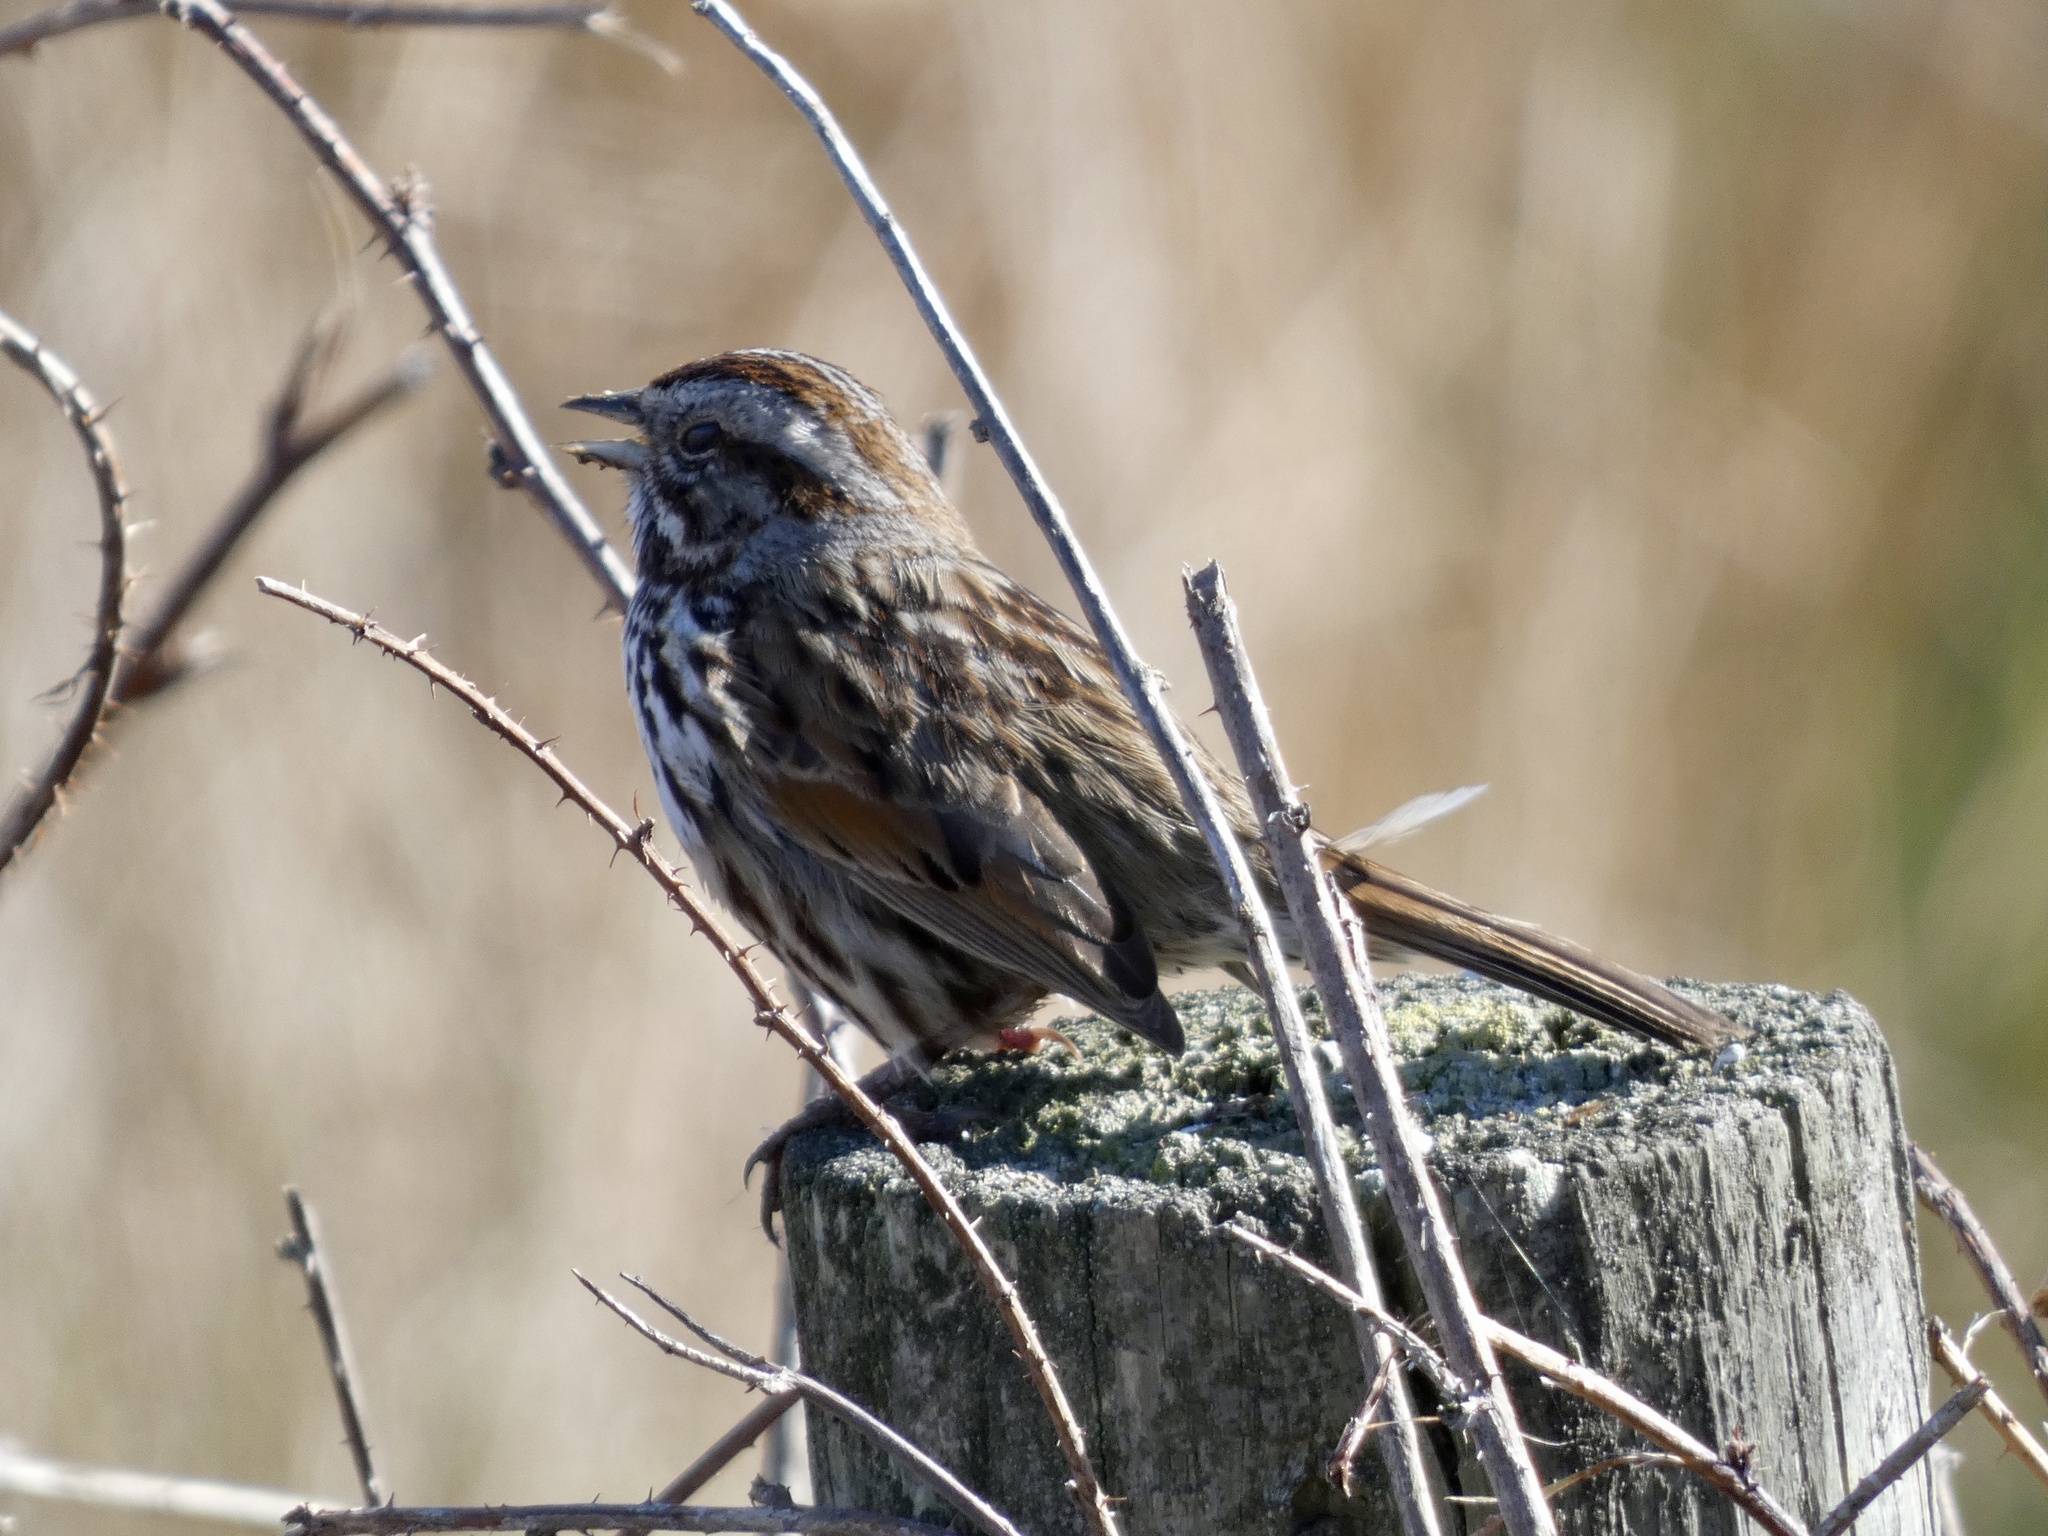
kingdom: Animalia
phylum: Chordata
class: Aves
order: Passeriformes
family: Passerellidae
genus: Melospiza
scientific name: Melospiza melodia
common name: Song sparrow
